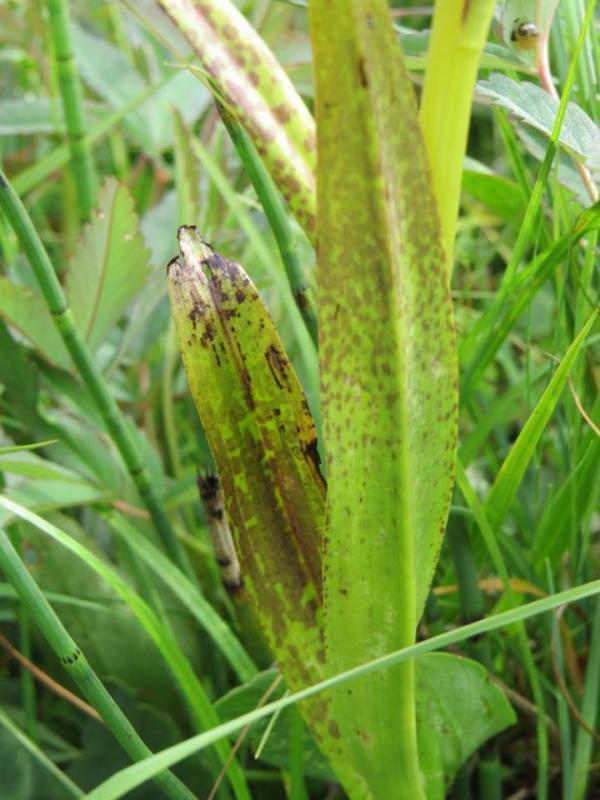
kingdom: Plantae
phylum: Tracheophyta
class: Liliopsida
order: Asparagales
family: Orchidaceae
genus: Dactylorhiza
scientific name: Dactylorhiza incarnata
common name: Early marsh-orchid
